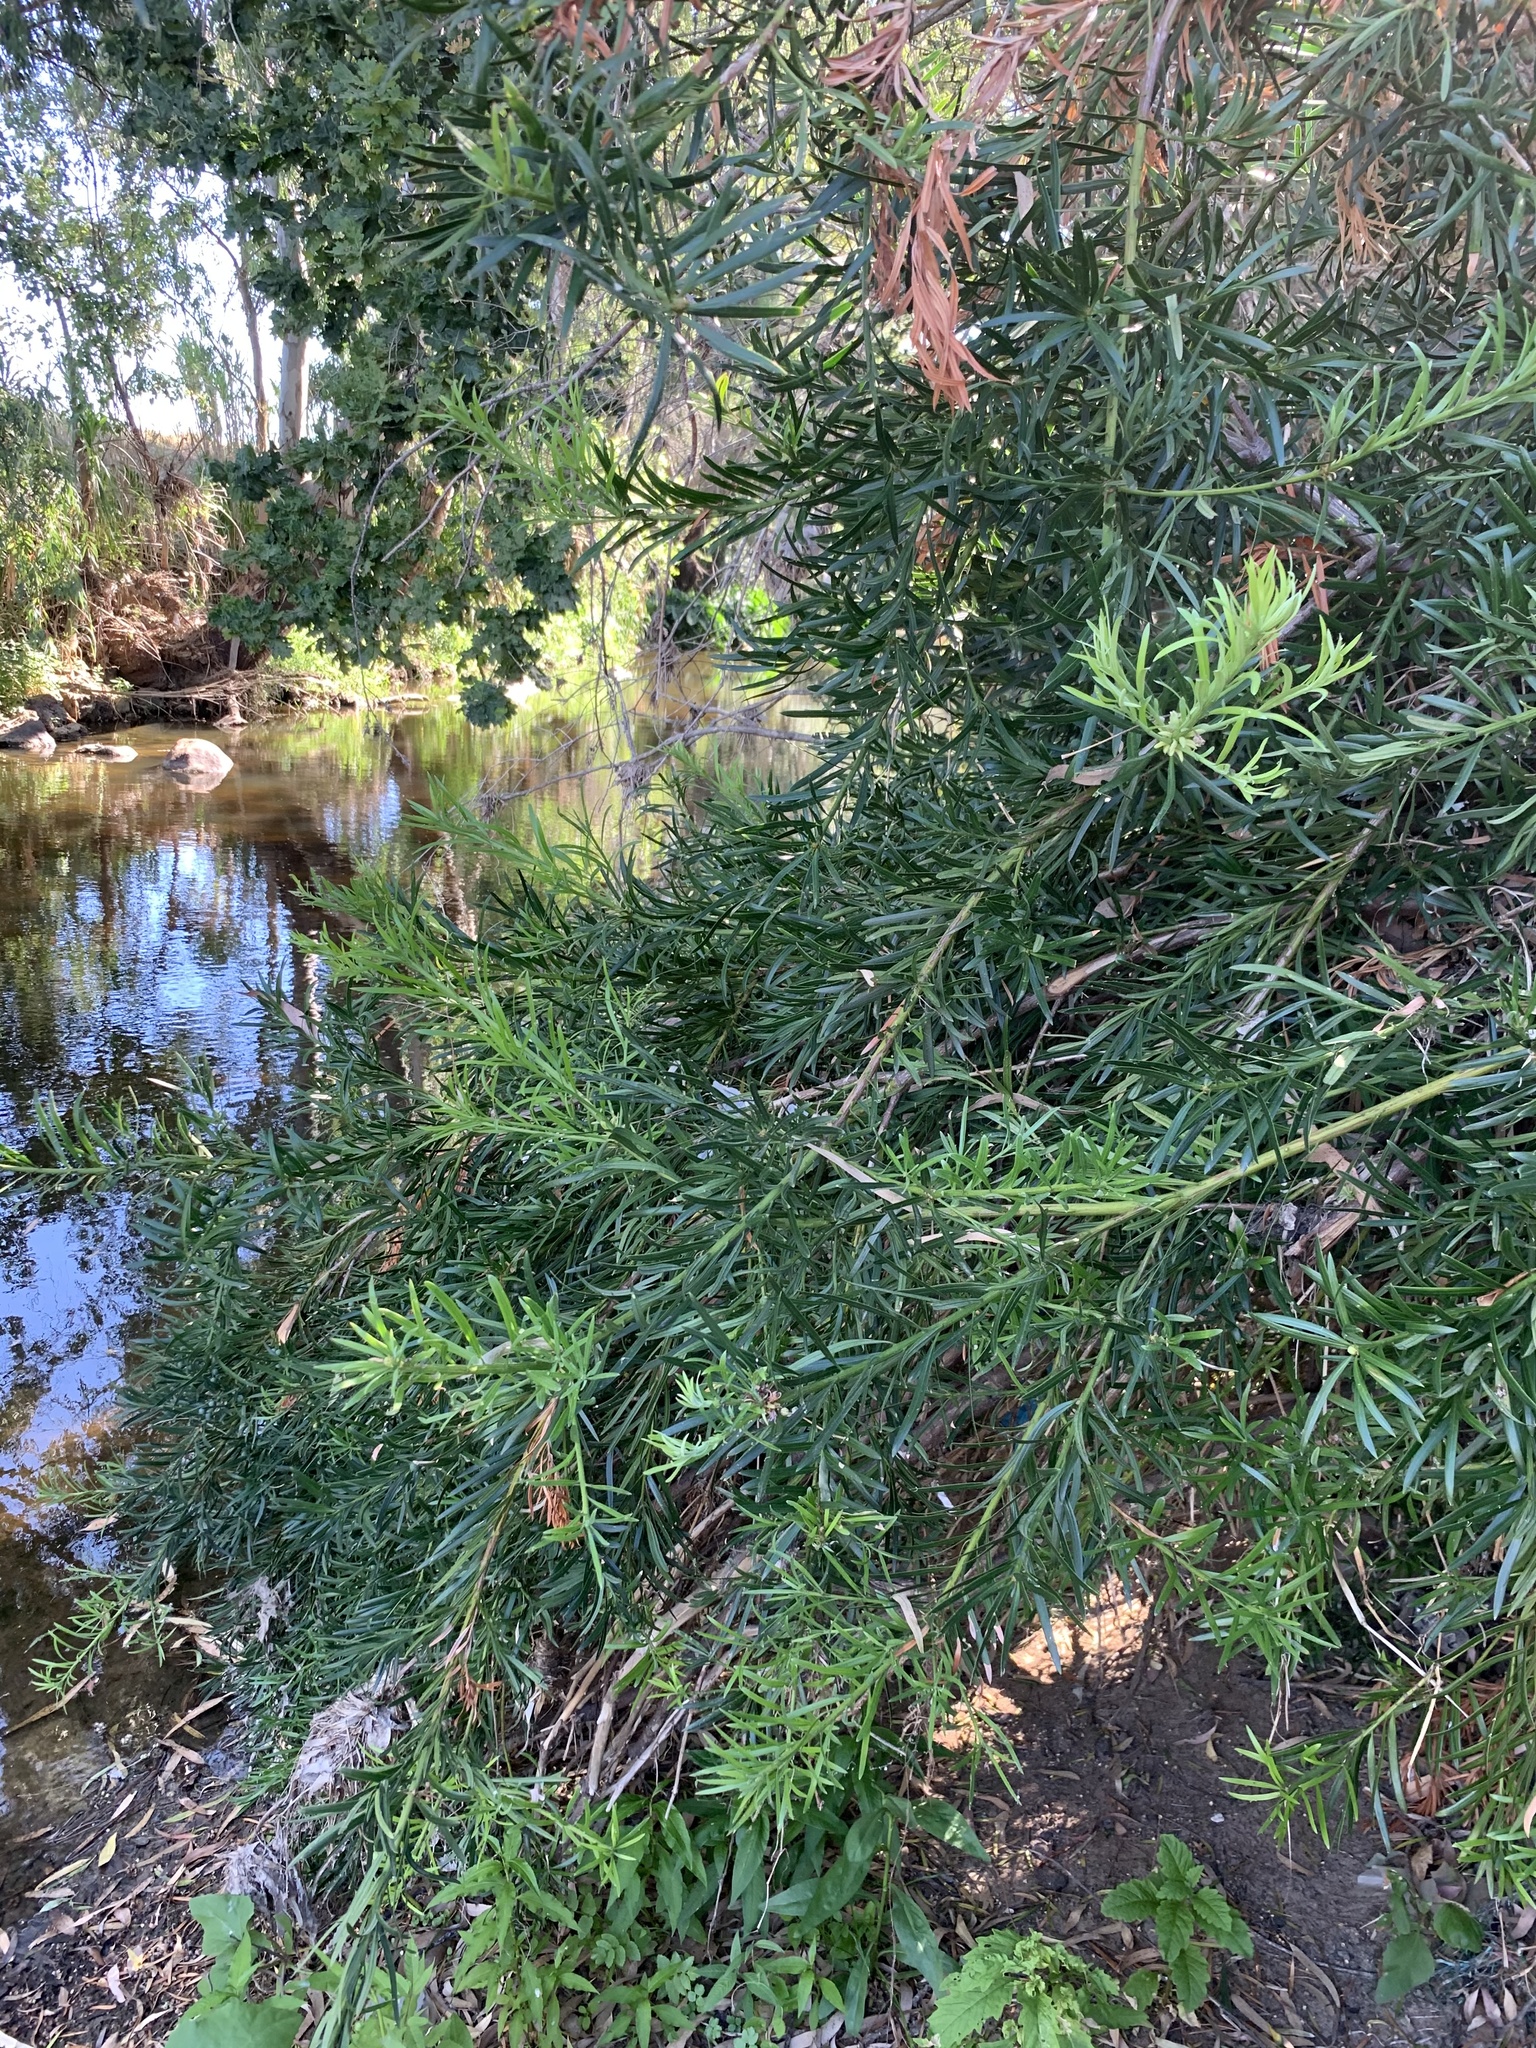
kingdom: Plantae
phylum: Tracheophyta
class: Pinopsida
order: Pinales
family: Podocarpaceae
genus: Afrocarpus
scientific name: Afrocarpus falcatus
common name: Bastard yellowwood
